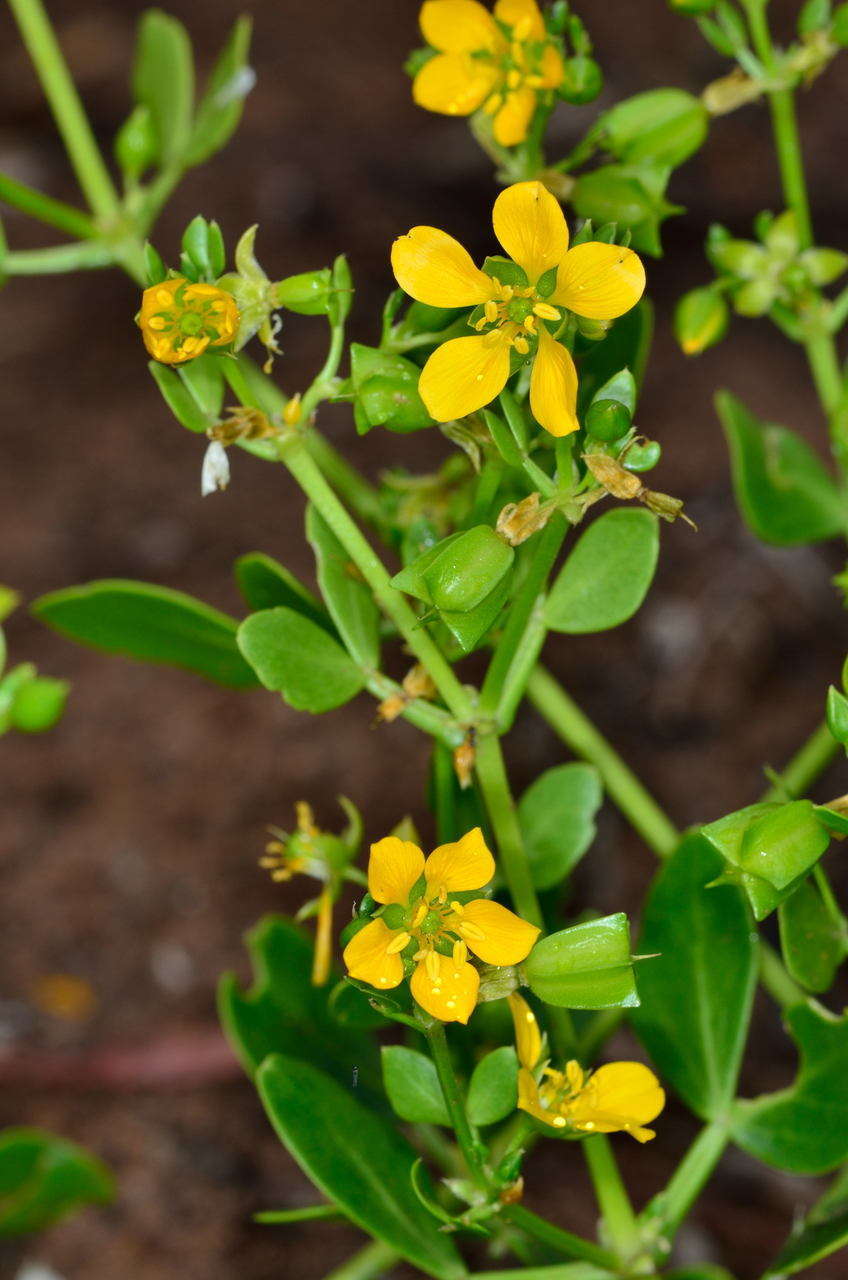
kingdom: Plantae
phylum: Tracheophyta
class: Magnoliopsida
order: Zygophyllales
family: Zygophyllaceae
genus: Roepera
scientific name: Roepera apiculata
